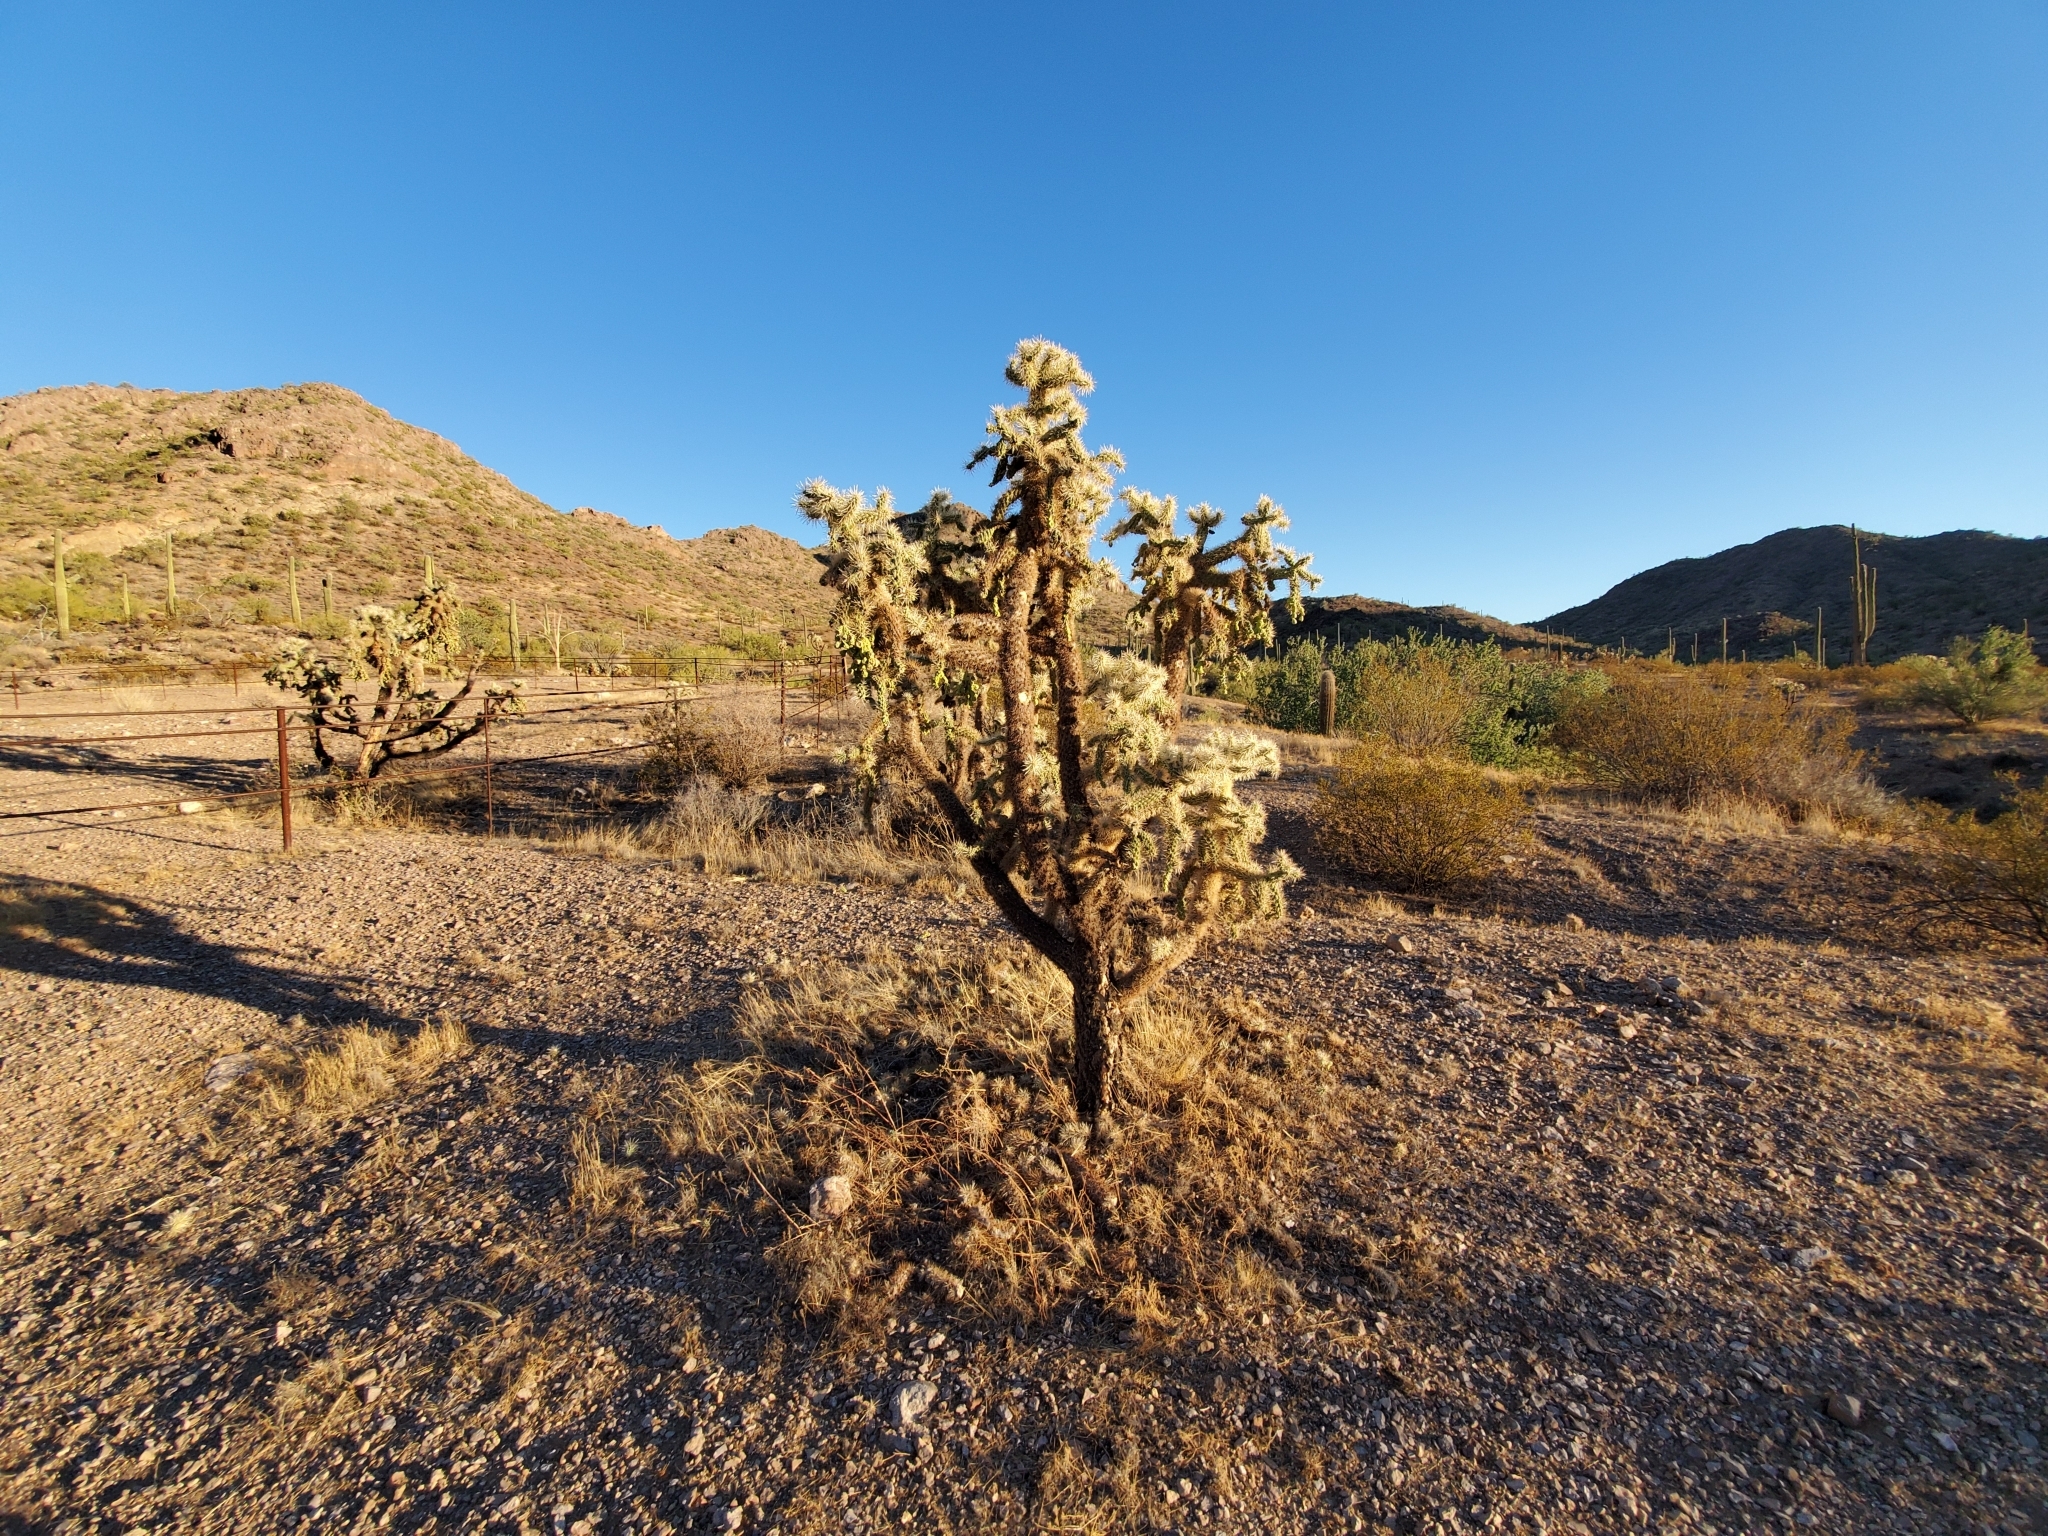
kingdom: Plantae
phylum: Tracheophyta
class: Magnoliopsida
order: Caryophyllales
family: Cactaceae
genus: Cylindropuntia
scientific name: Cylindropuntia fulgida
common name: Jumping cholla
